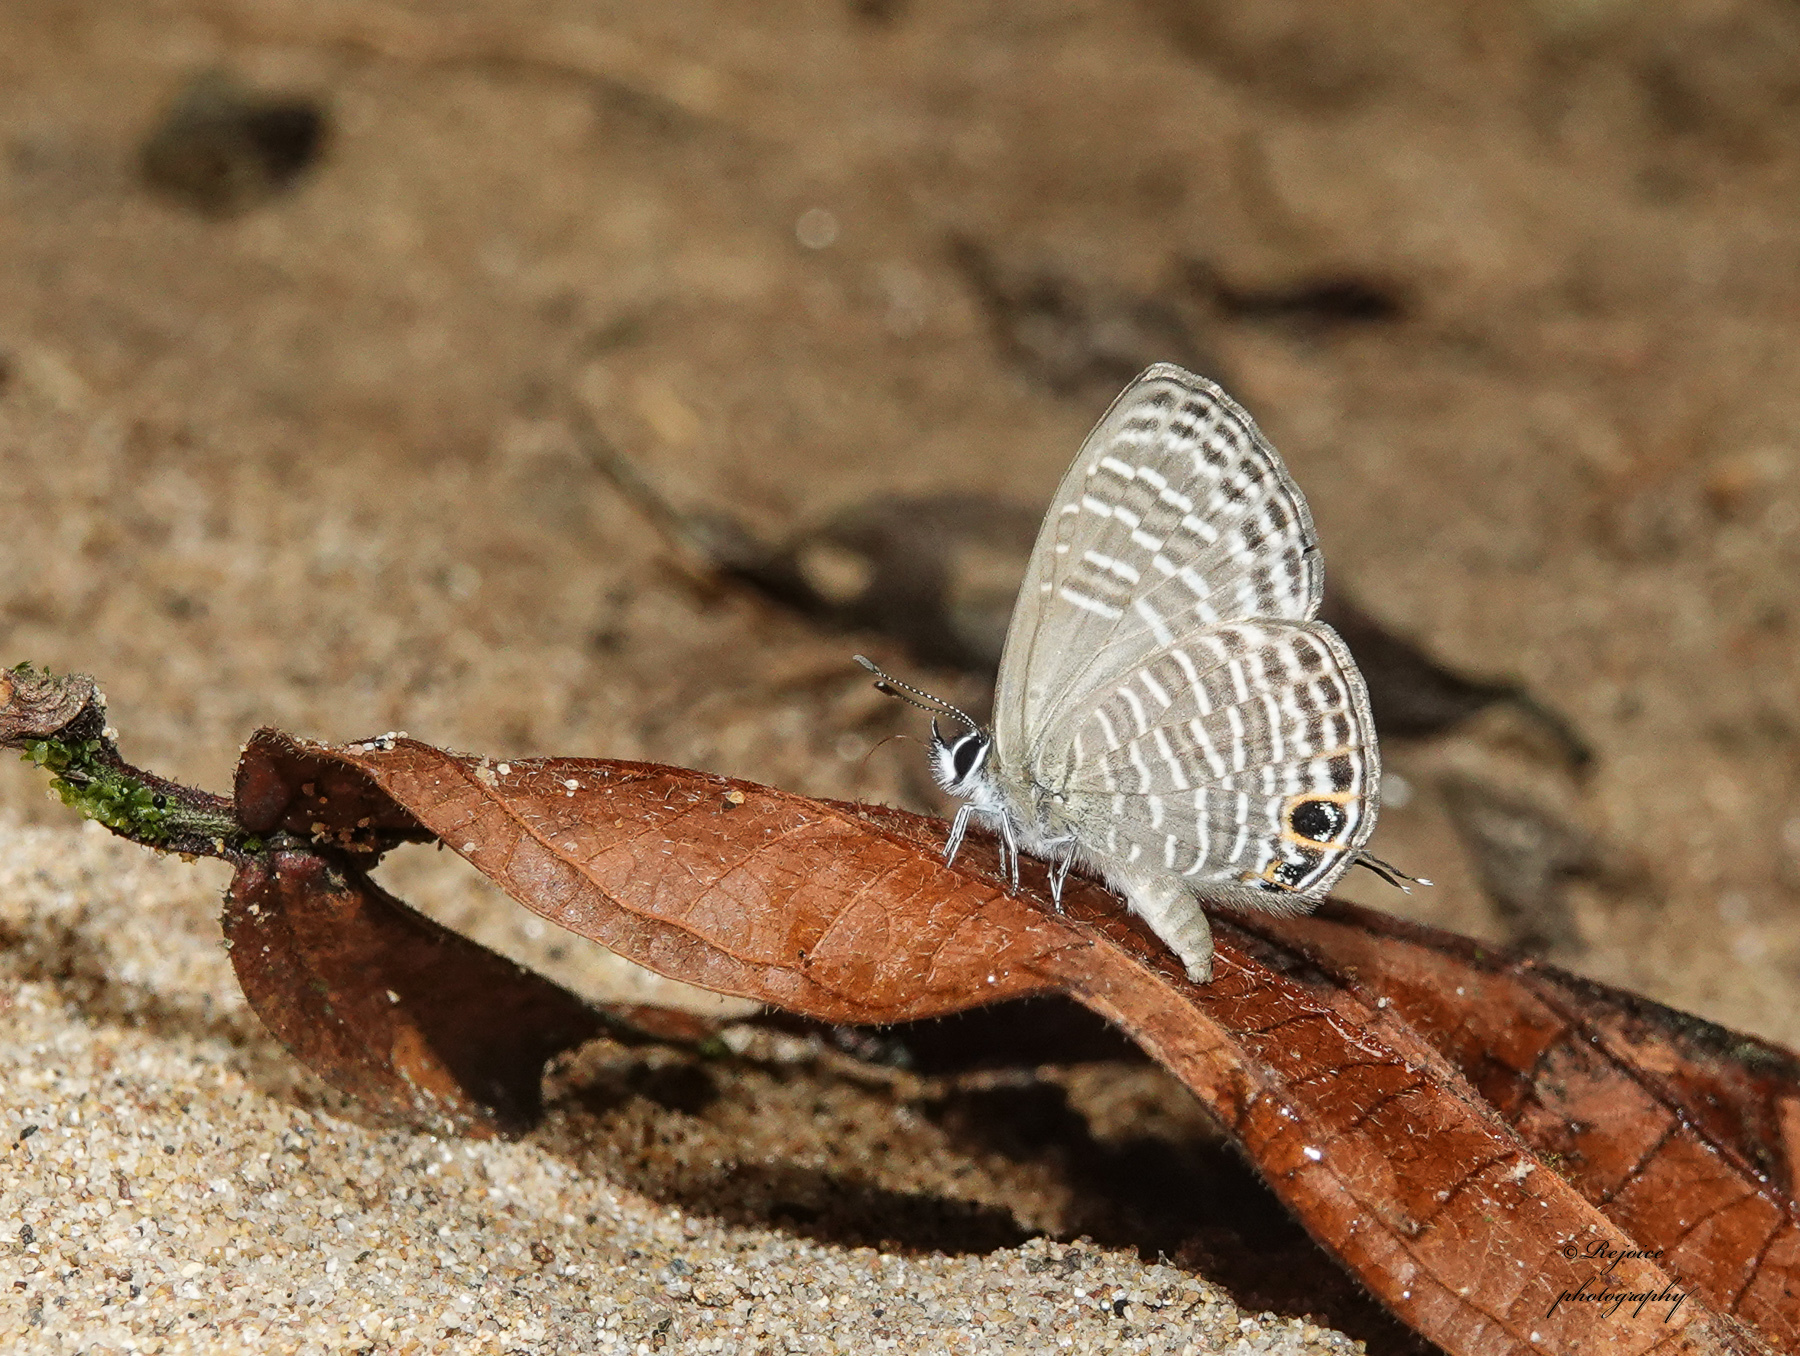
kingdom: Animalia
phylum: Arthropoda
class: Insecta
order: Lepidoptera
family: Lycaenidae
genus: Nacaduba
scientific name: Nacaduba hermus
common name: Pale four-line blue
